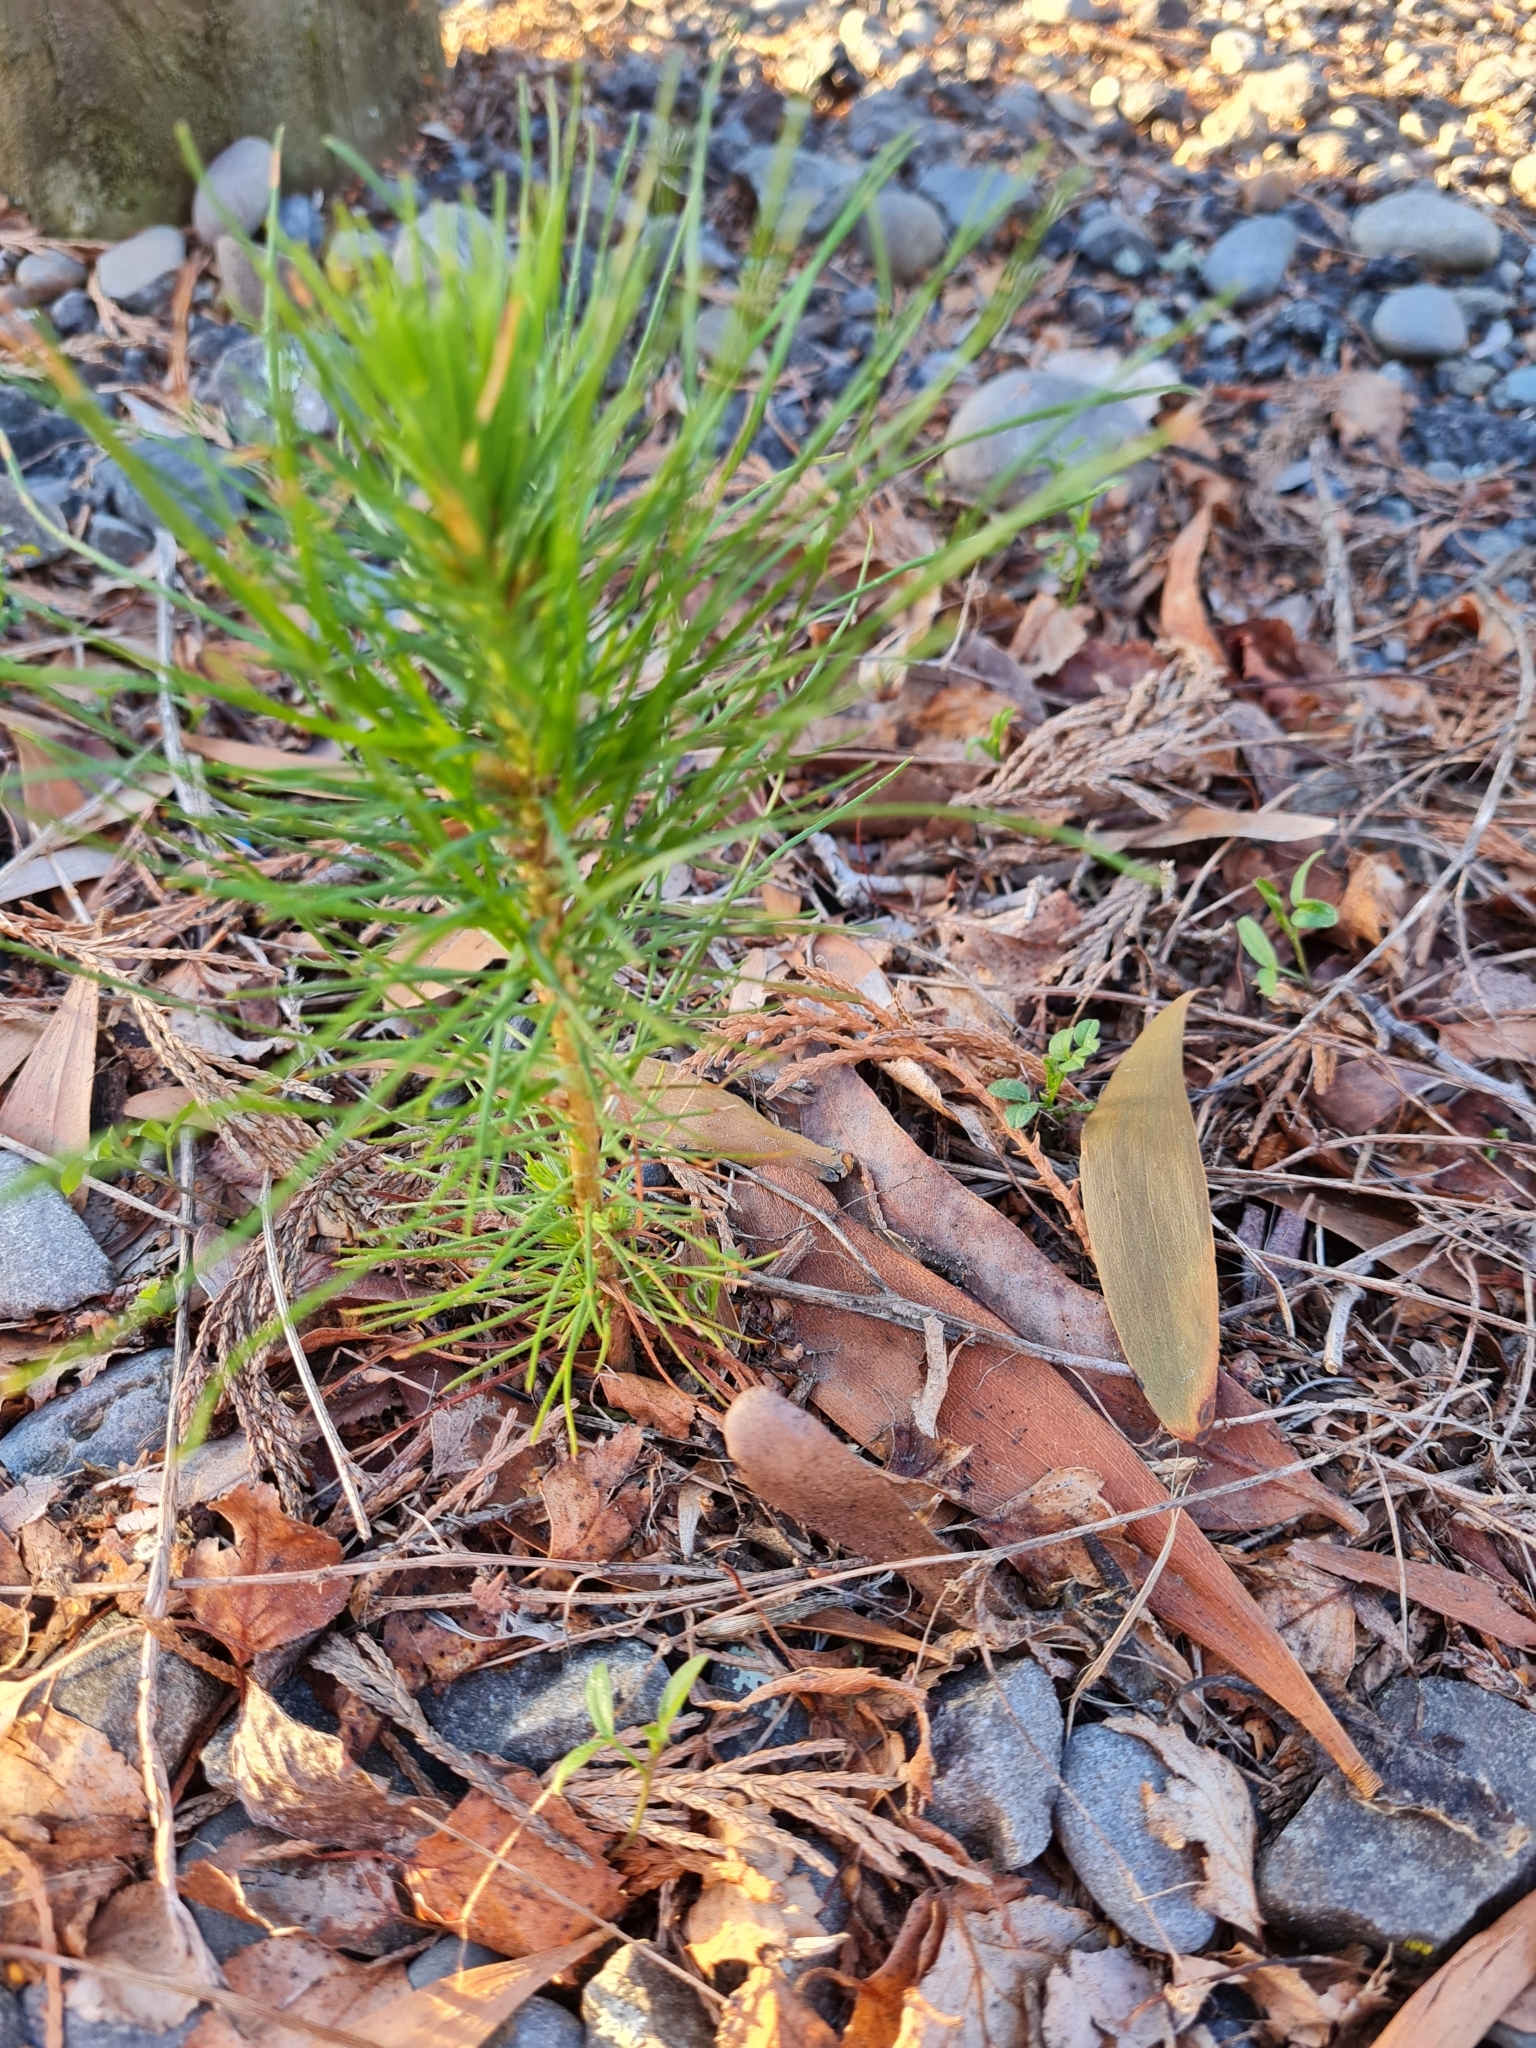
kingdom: Plantae
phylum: Tracheophyta
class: Pinopsida
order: Pinales
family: Pinaceae
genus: Pinus
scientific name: Pinus radiata
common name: Monterey pine
